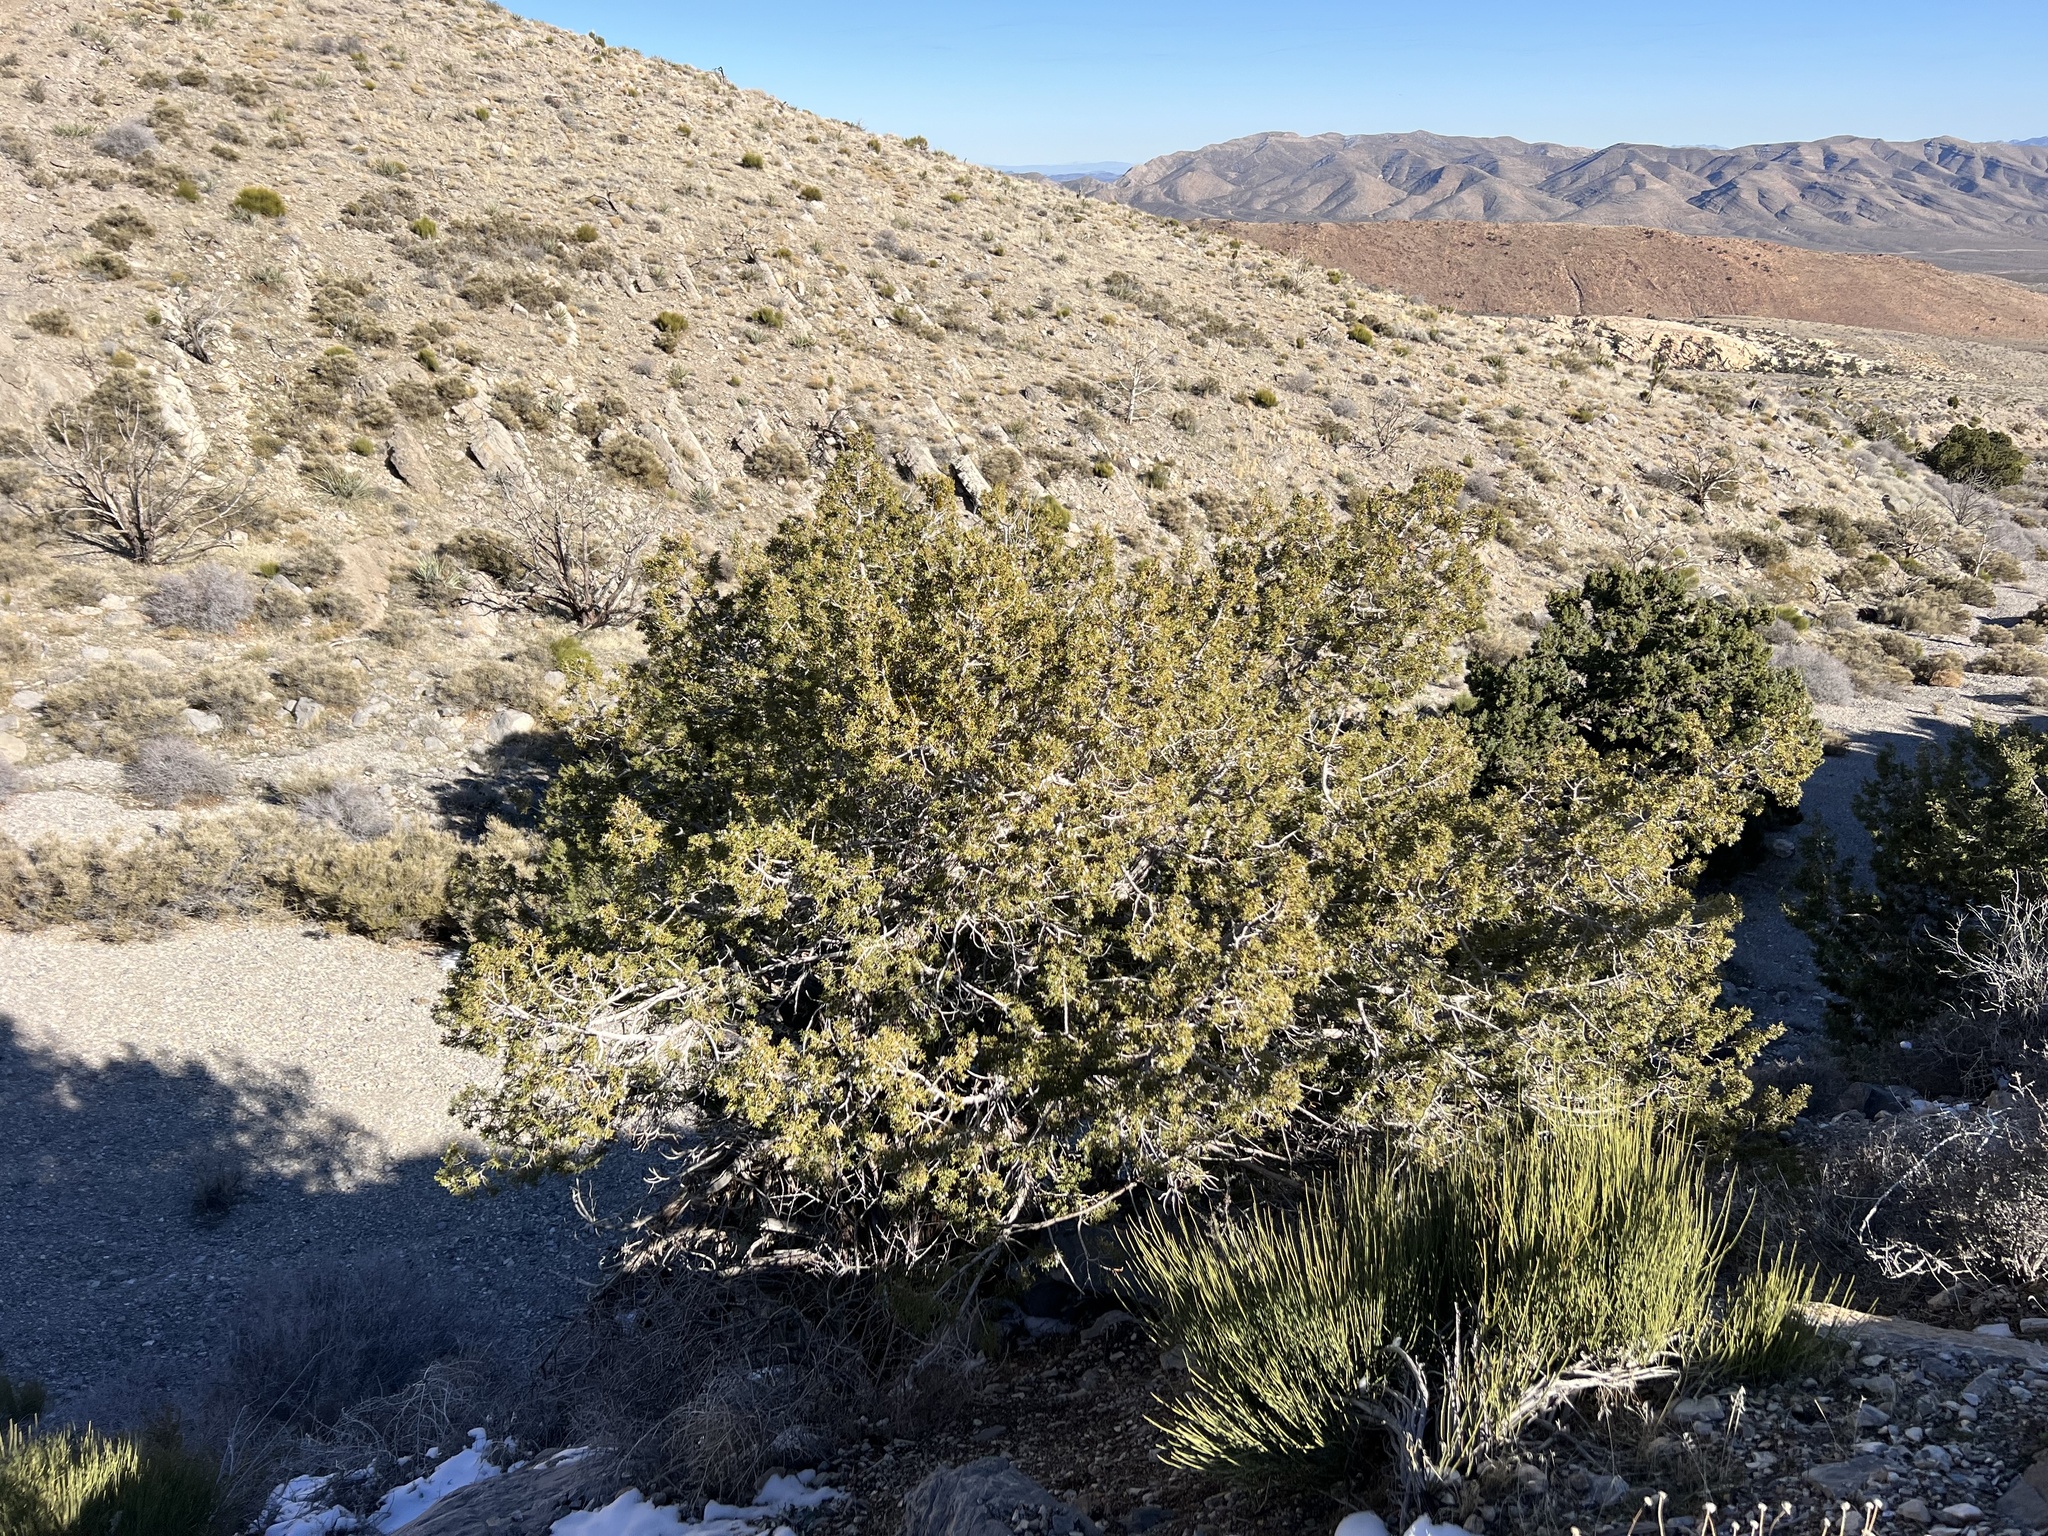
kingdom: Plantae
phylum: Tracheophyta
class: Pinopsida
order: Pinales
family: Cupressaceae
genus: Juniperus
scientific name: Juniperus osteosperma
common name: Utah juniper
